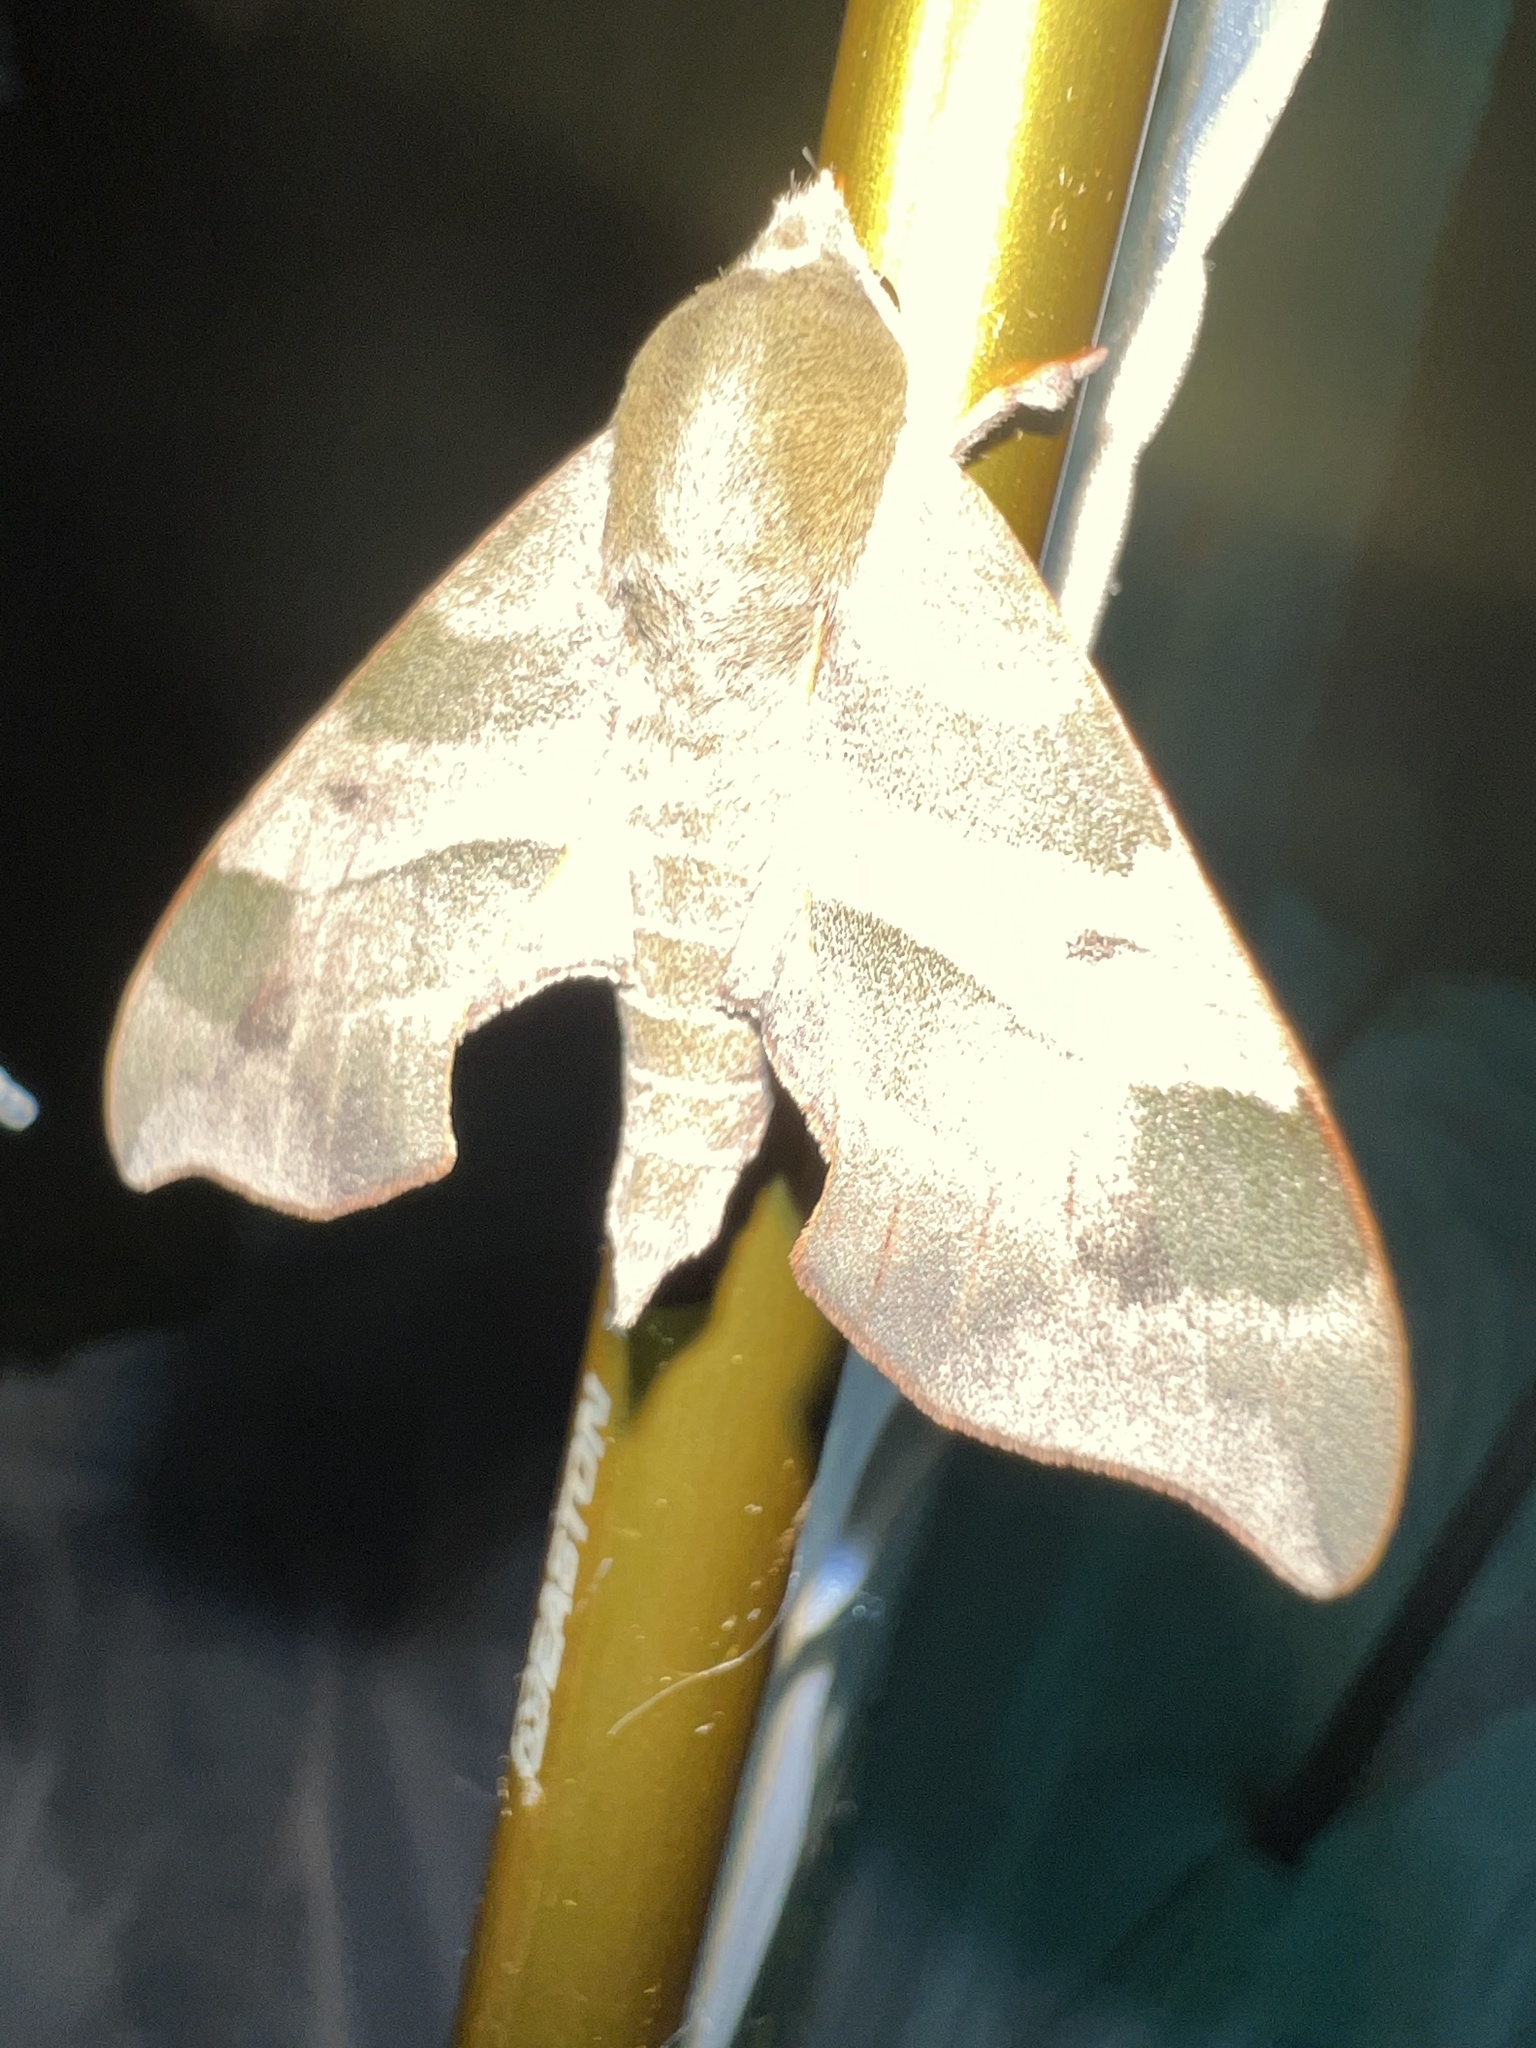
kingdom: Animalia
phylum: Arthropoda
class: Insecta
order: Lepidoptera
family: Sphingidae
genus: Darapsa
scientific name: Darapsa myron
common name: Hog sphinx
